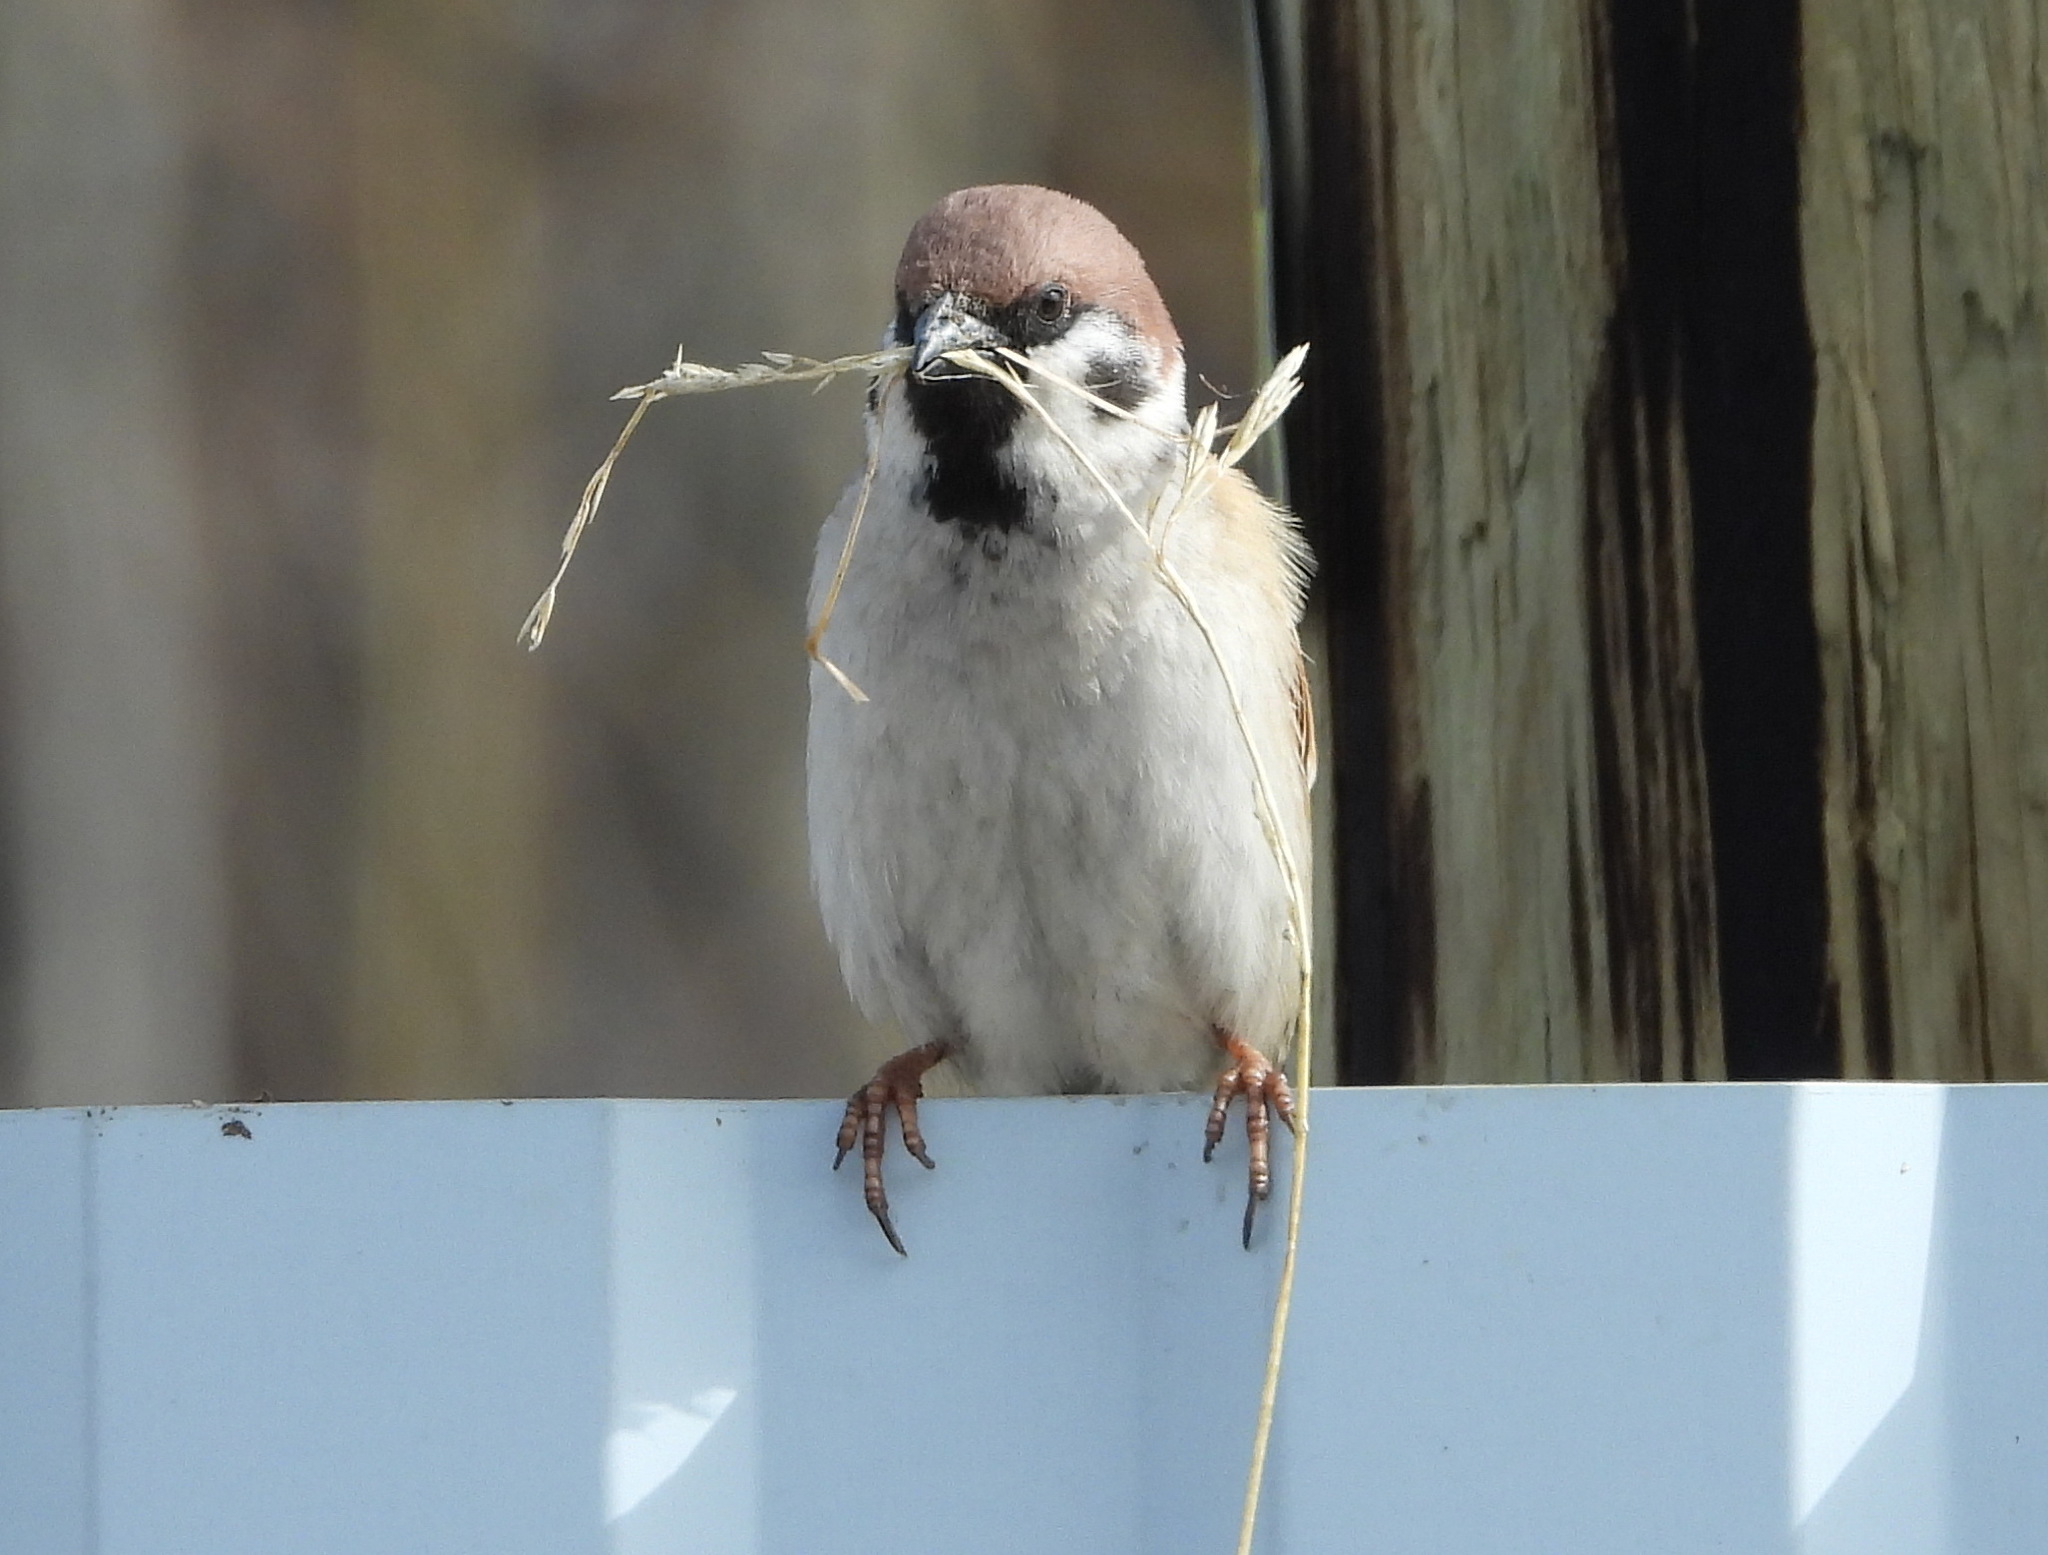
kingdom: Animalia
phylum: Chordata
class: Aves
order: Passeriformes
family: Passeridae
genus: Passer
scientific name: Passer montanus
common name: Eurasian tree sparrow
